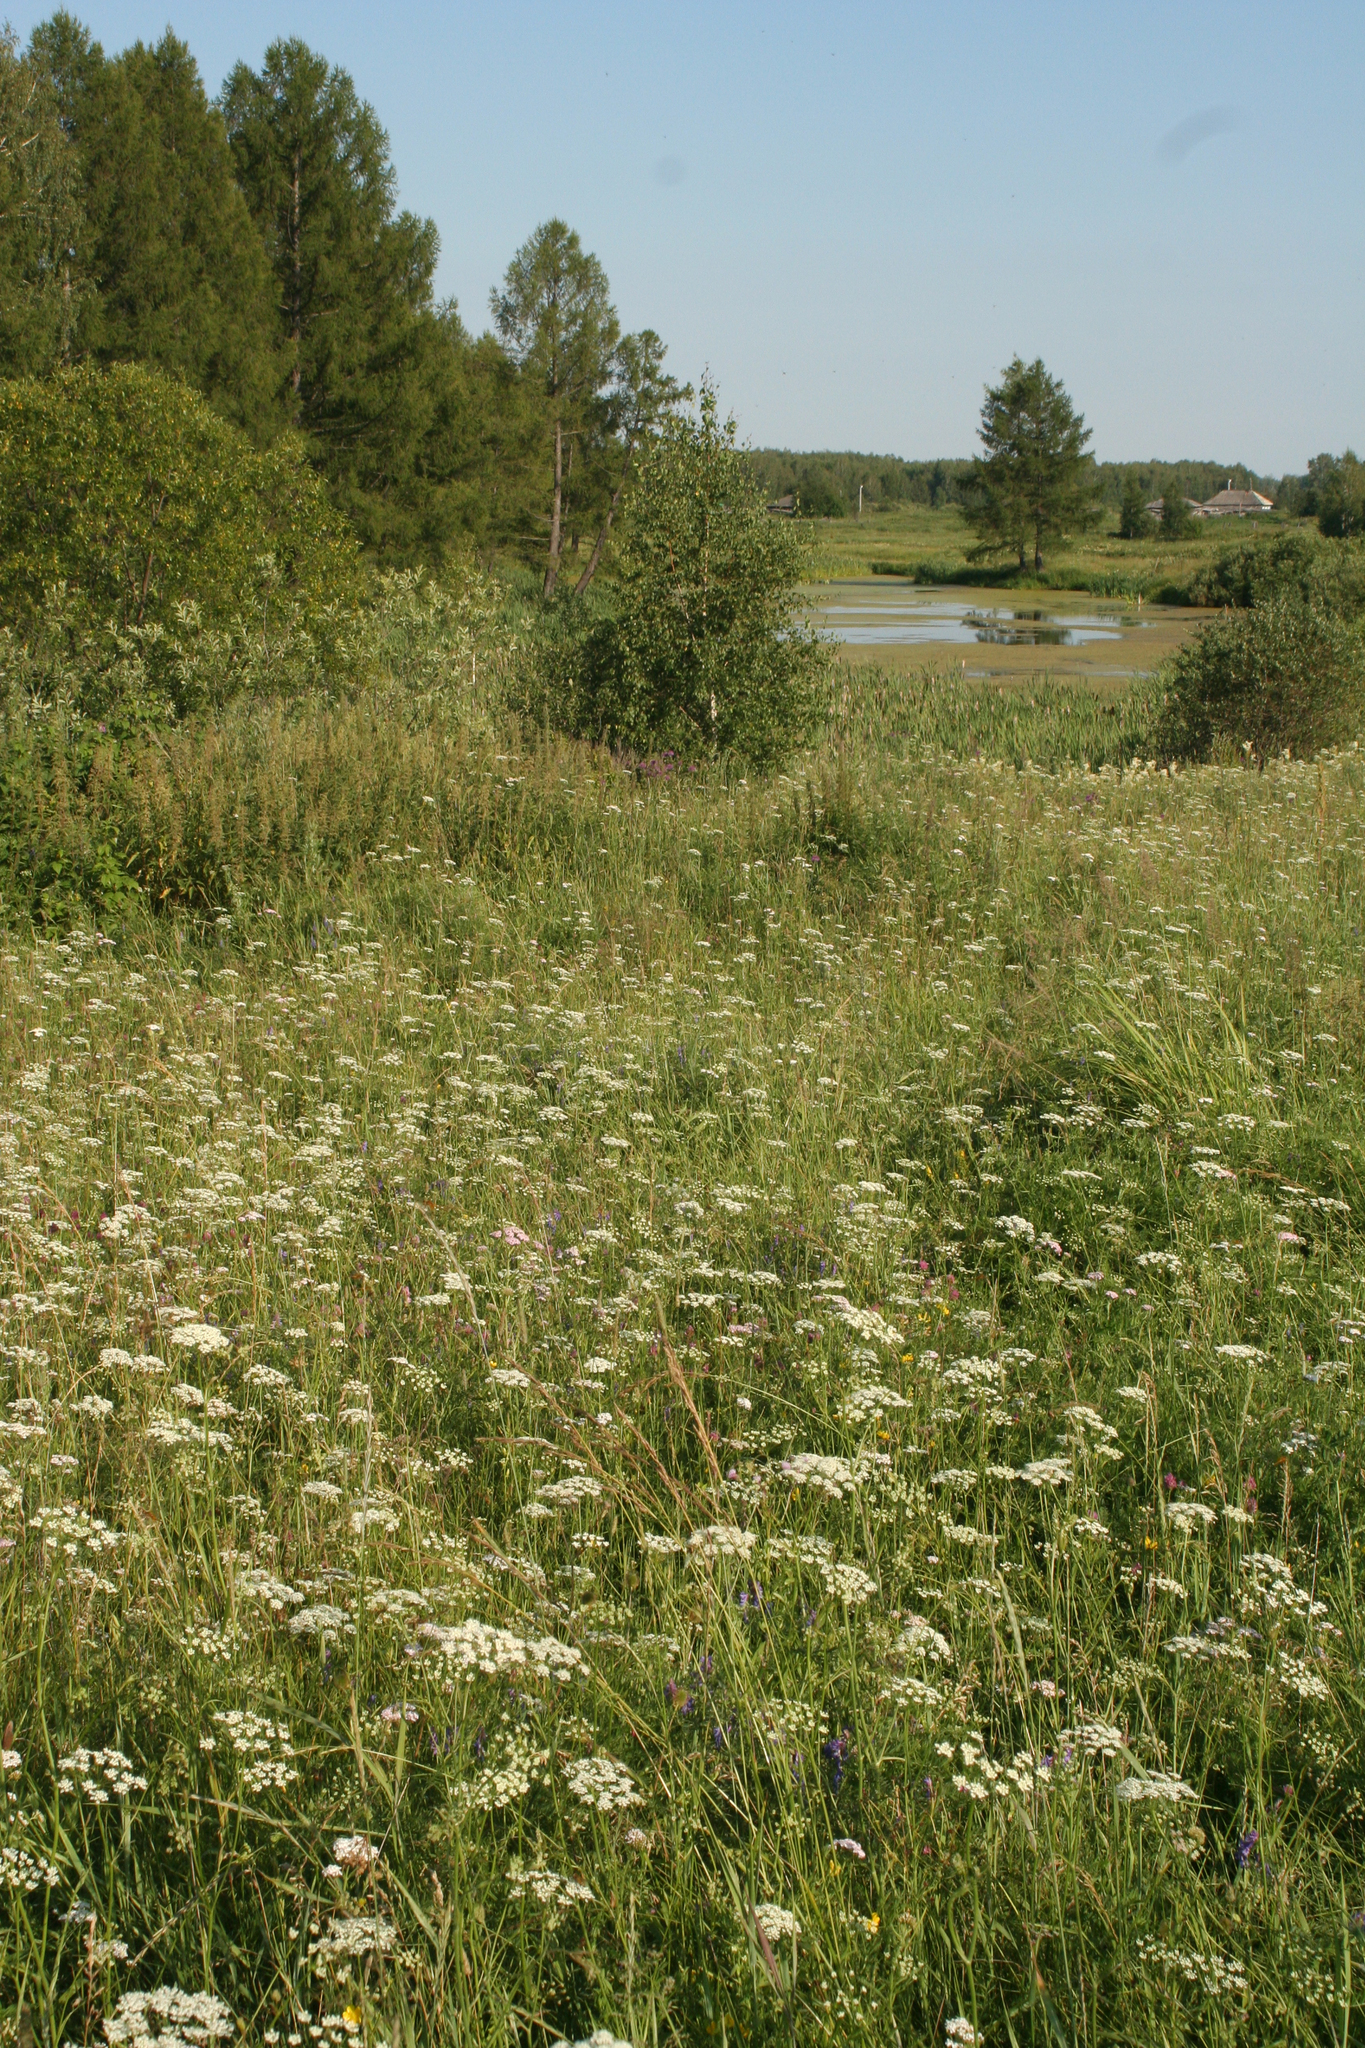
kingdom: Plantae
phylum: Tracheophyta
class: Magnoliopsida
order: Apiales
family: Apiaceae
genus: Pimpinella
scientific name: Pimpinella saxifraga
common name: Burnet-saxifrage
